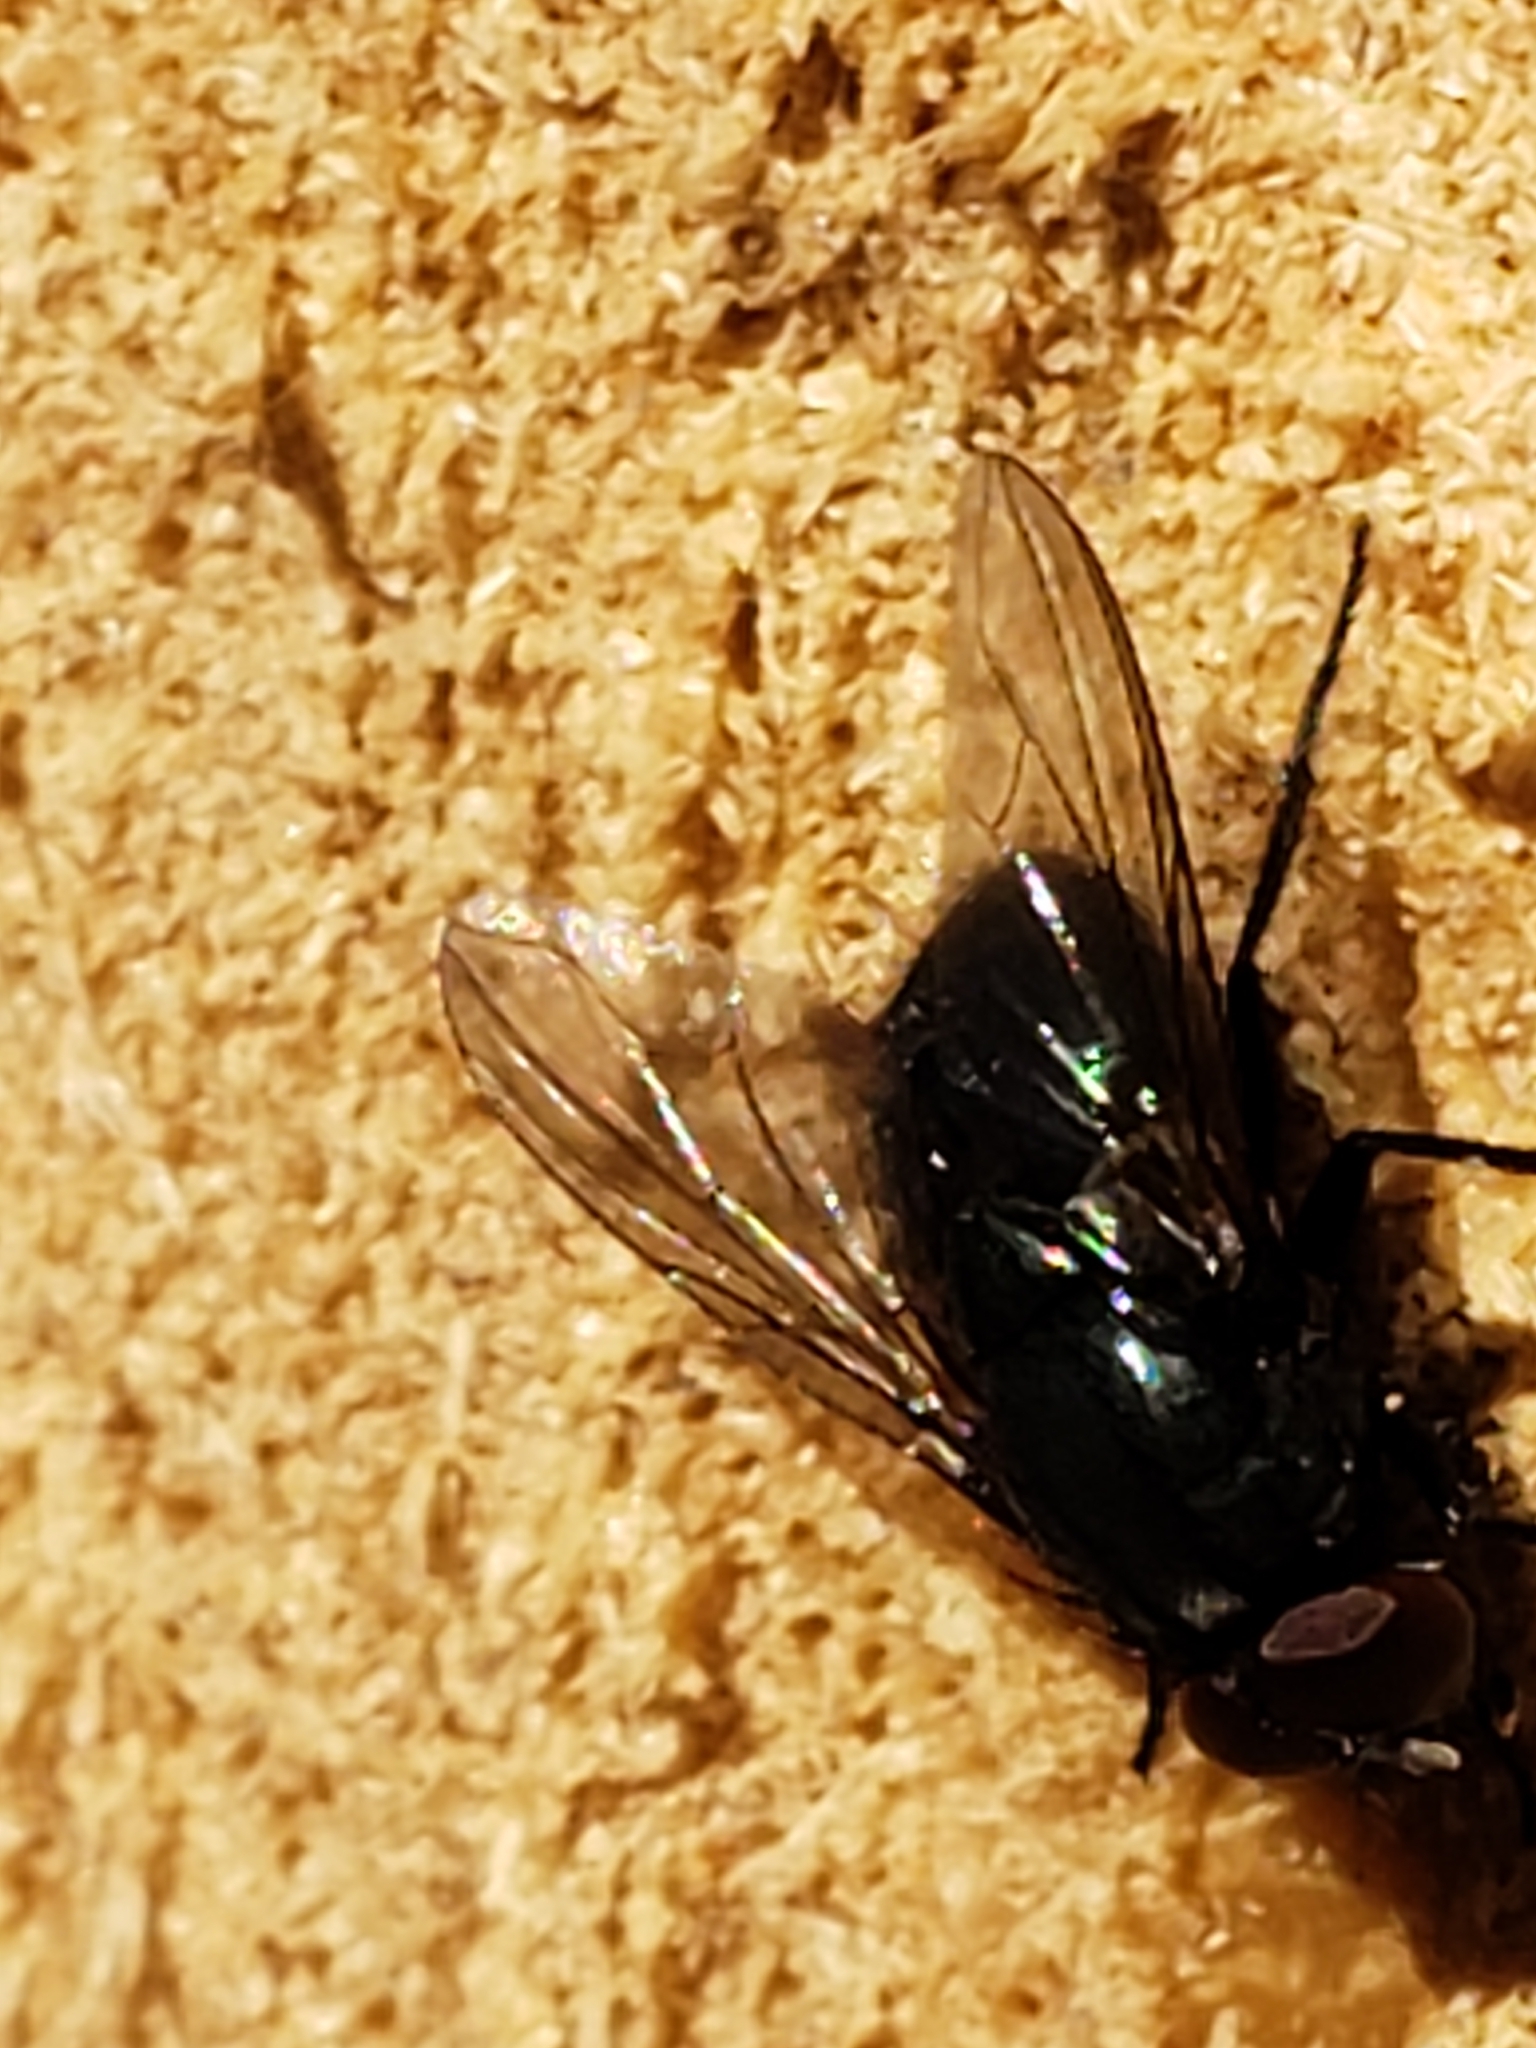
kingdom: Animalia
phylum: Arthropoda
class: Insecta
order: Diptera
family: Muscidae
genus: Eudasyphora
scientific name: Eudasyphora cyanicolor
